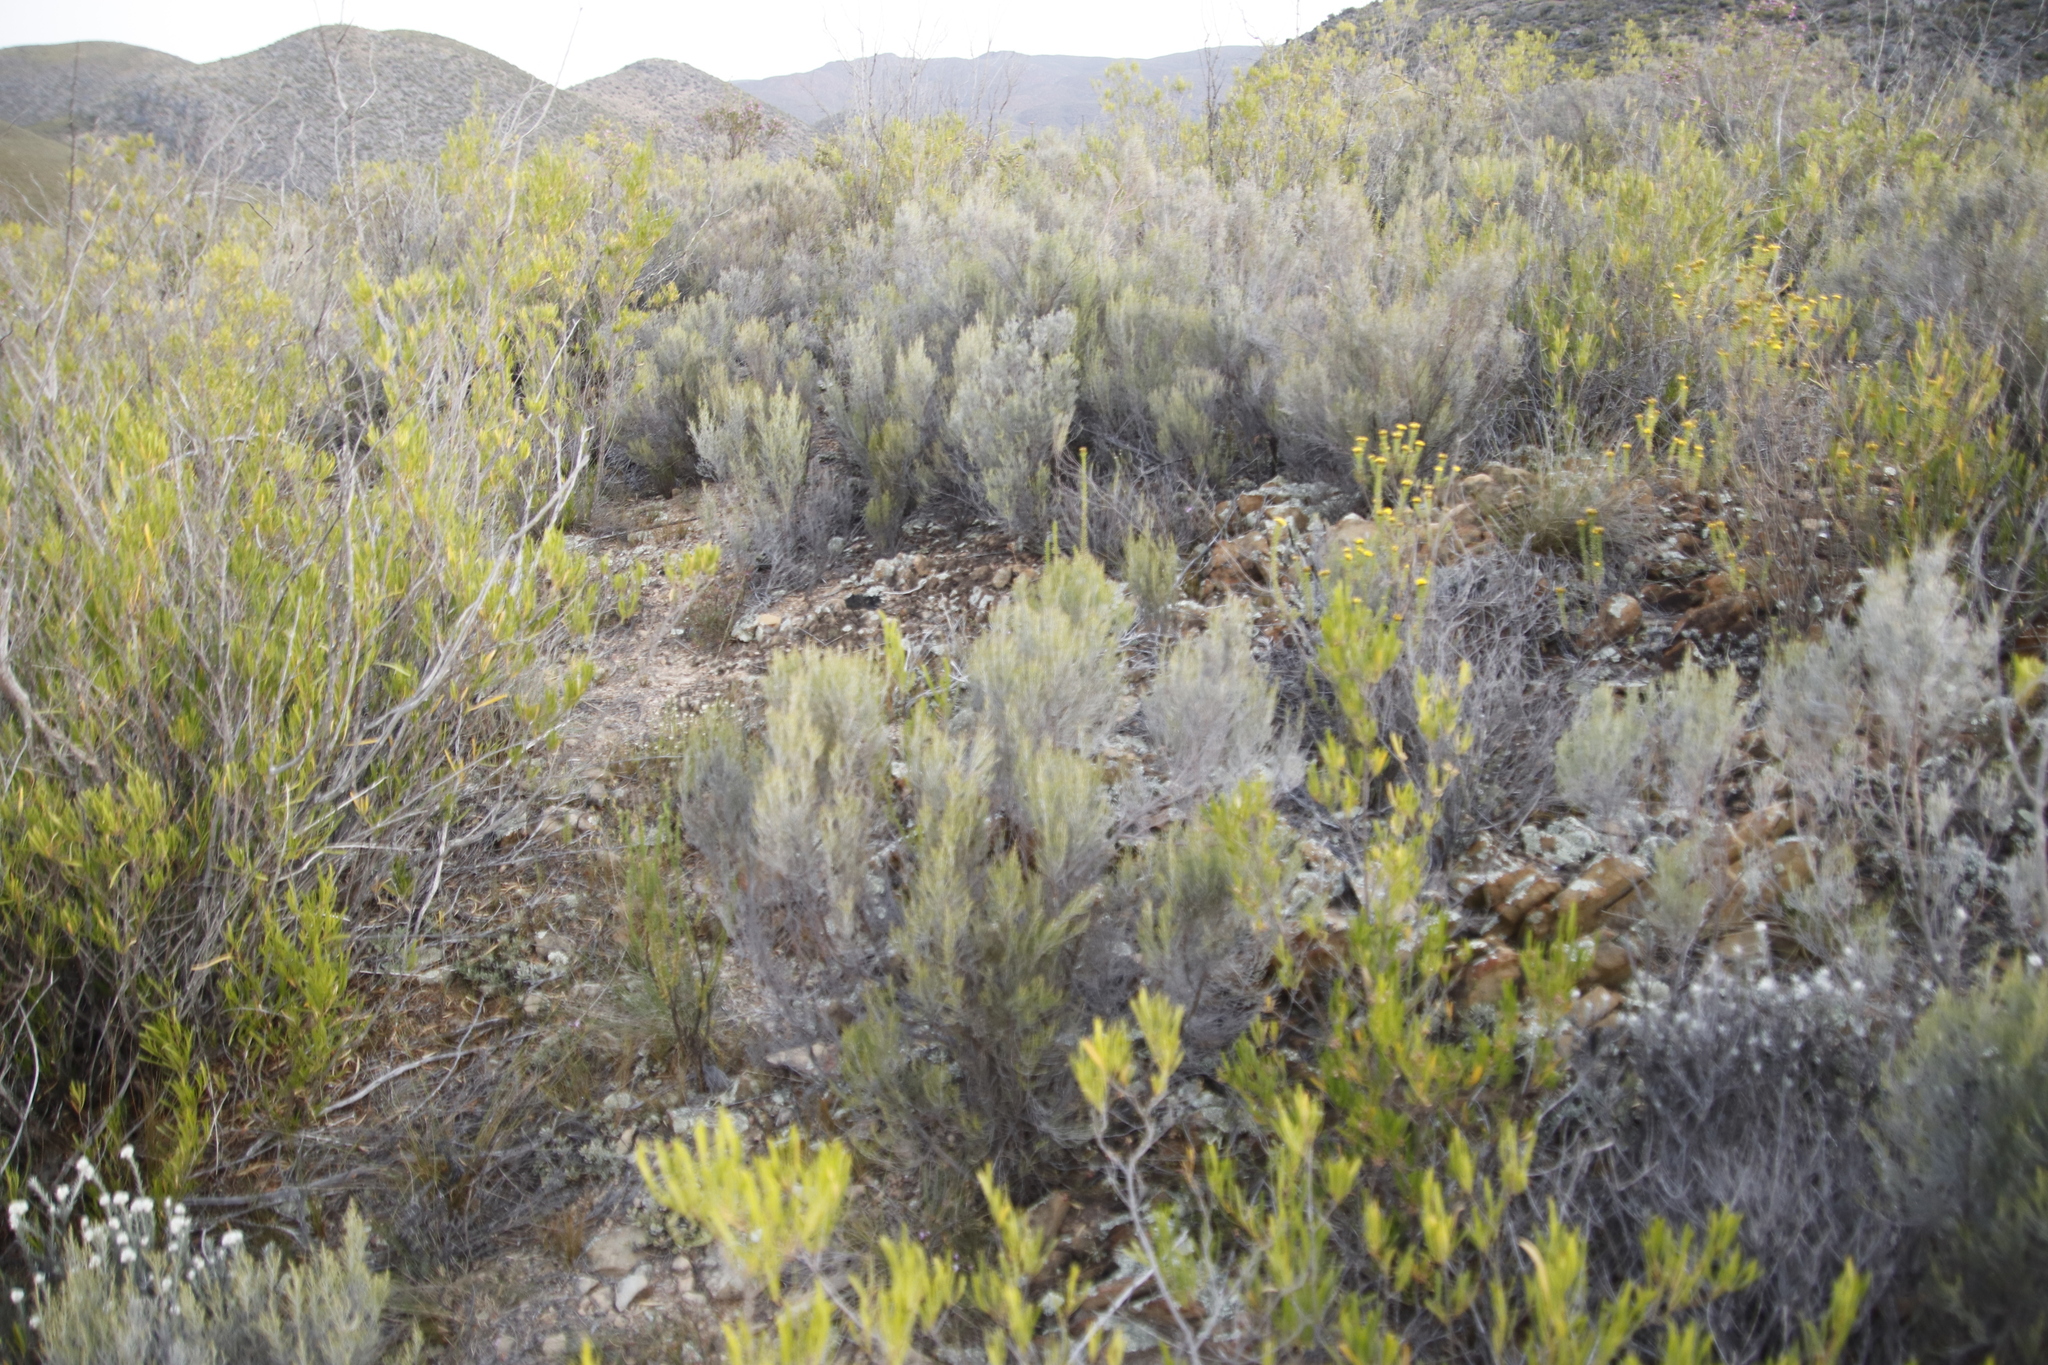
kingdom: Plantae
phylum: Tracheophyta
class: Magnoliopsida
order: Asterales
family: Asteraceae
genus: Dicerothamnus
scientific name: Dicerothamnus rhinocerotis
